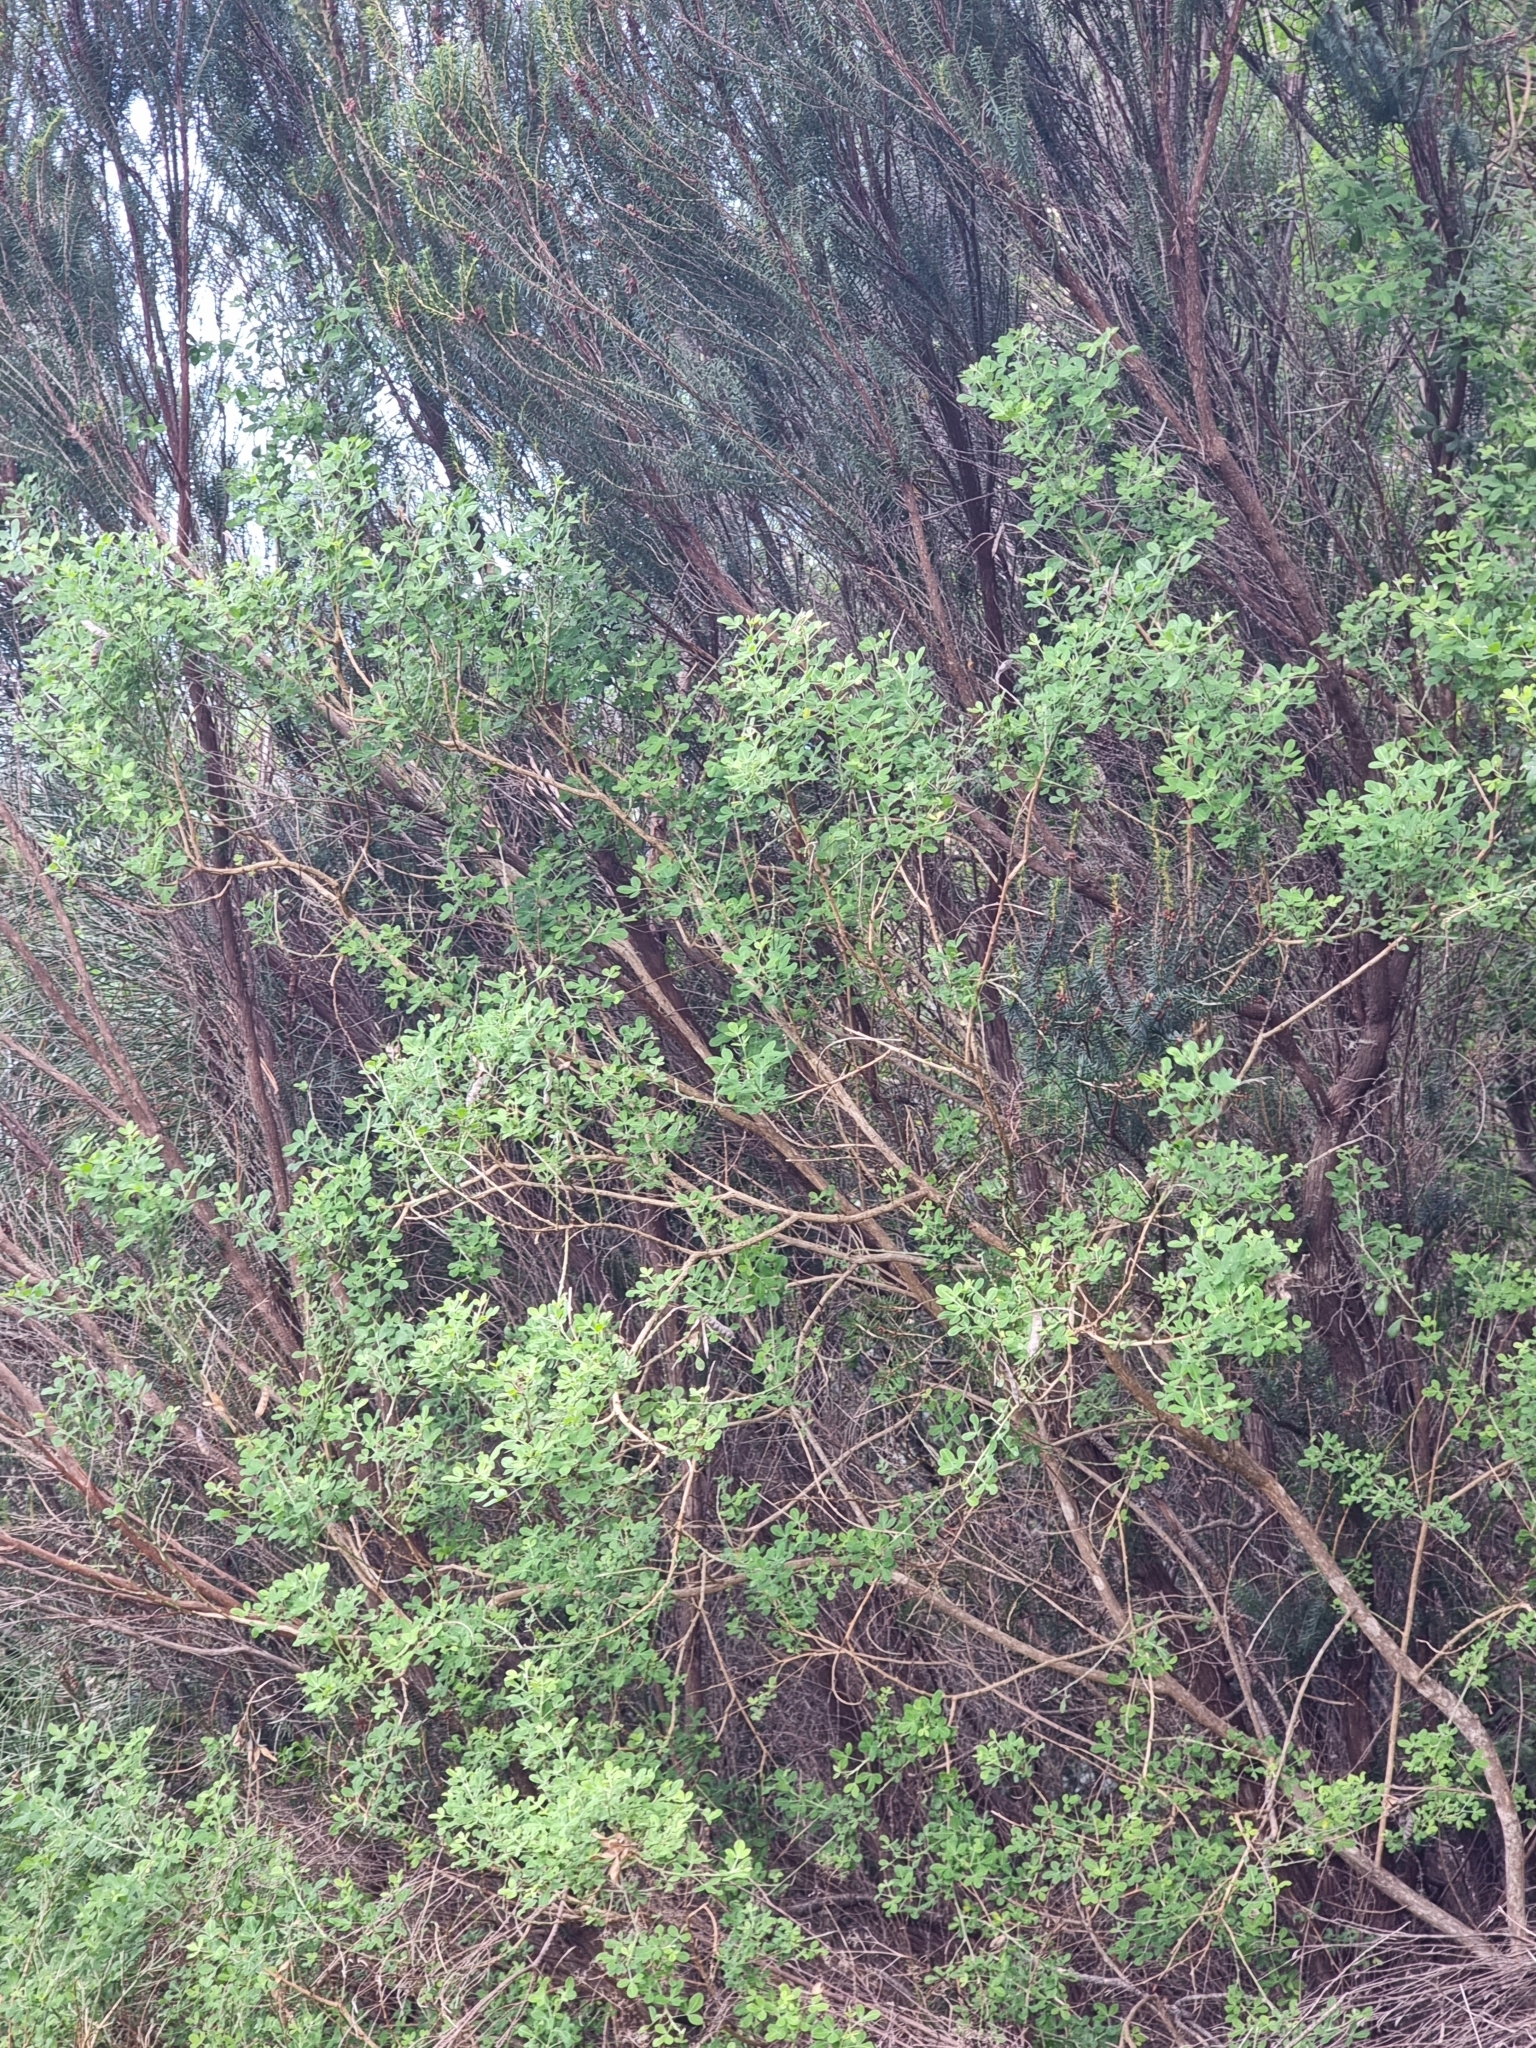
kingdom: Plantae
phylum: Tracheophyta
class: Magnoliopsida
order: Fabales
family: Fabaceae
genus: Genista
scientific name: Genista maderensis
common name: Madeira dyer's greenweed
